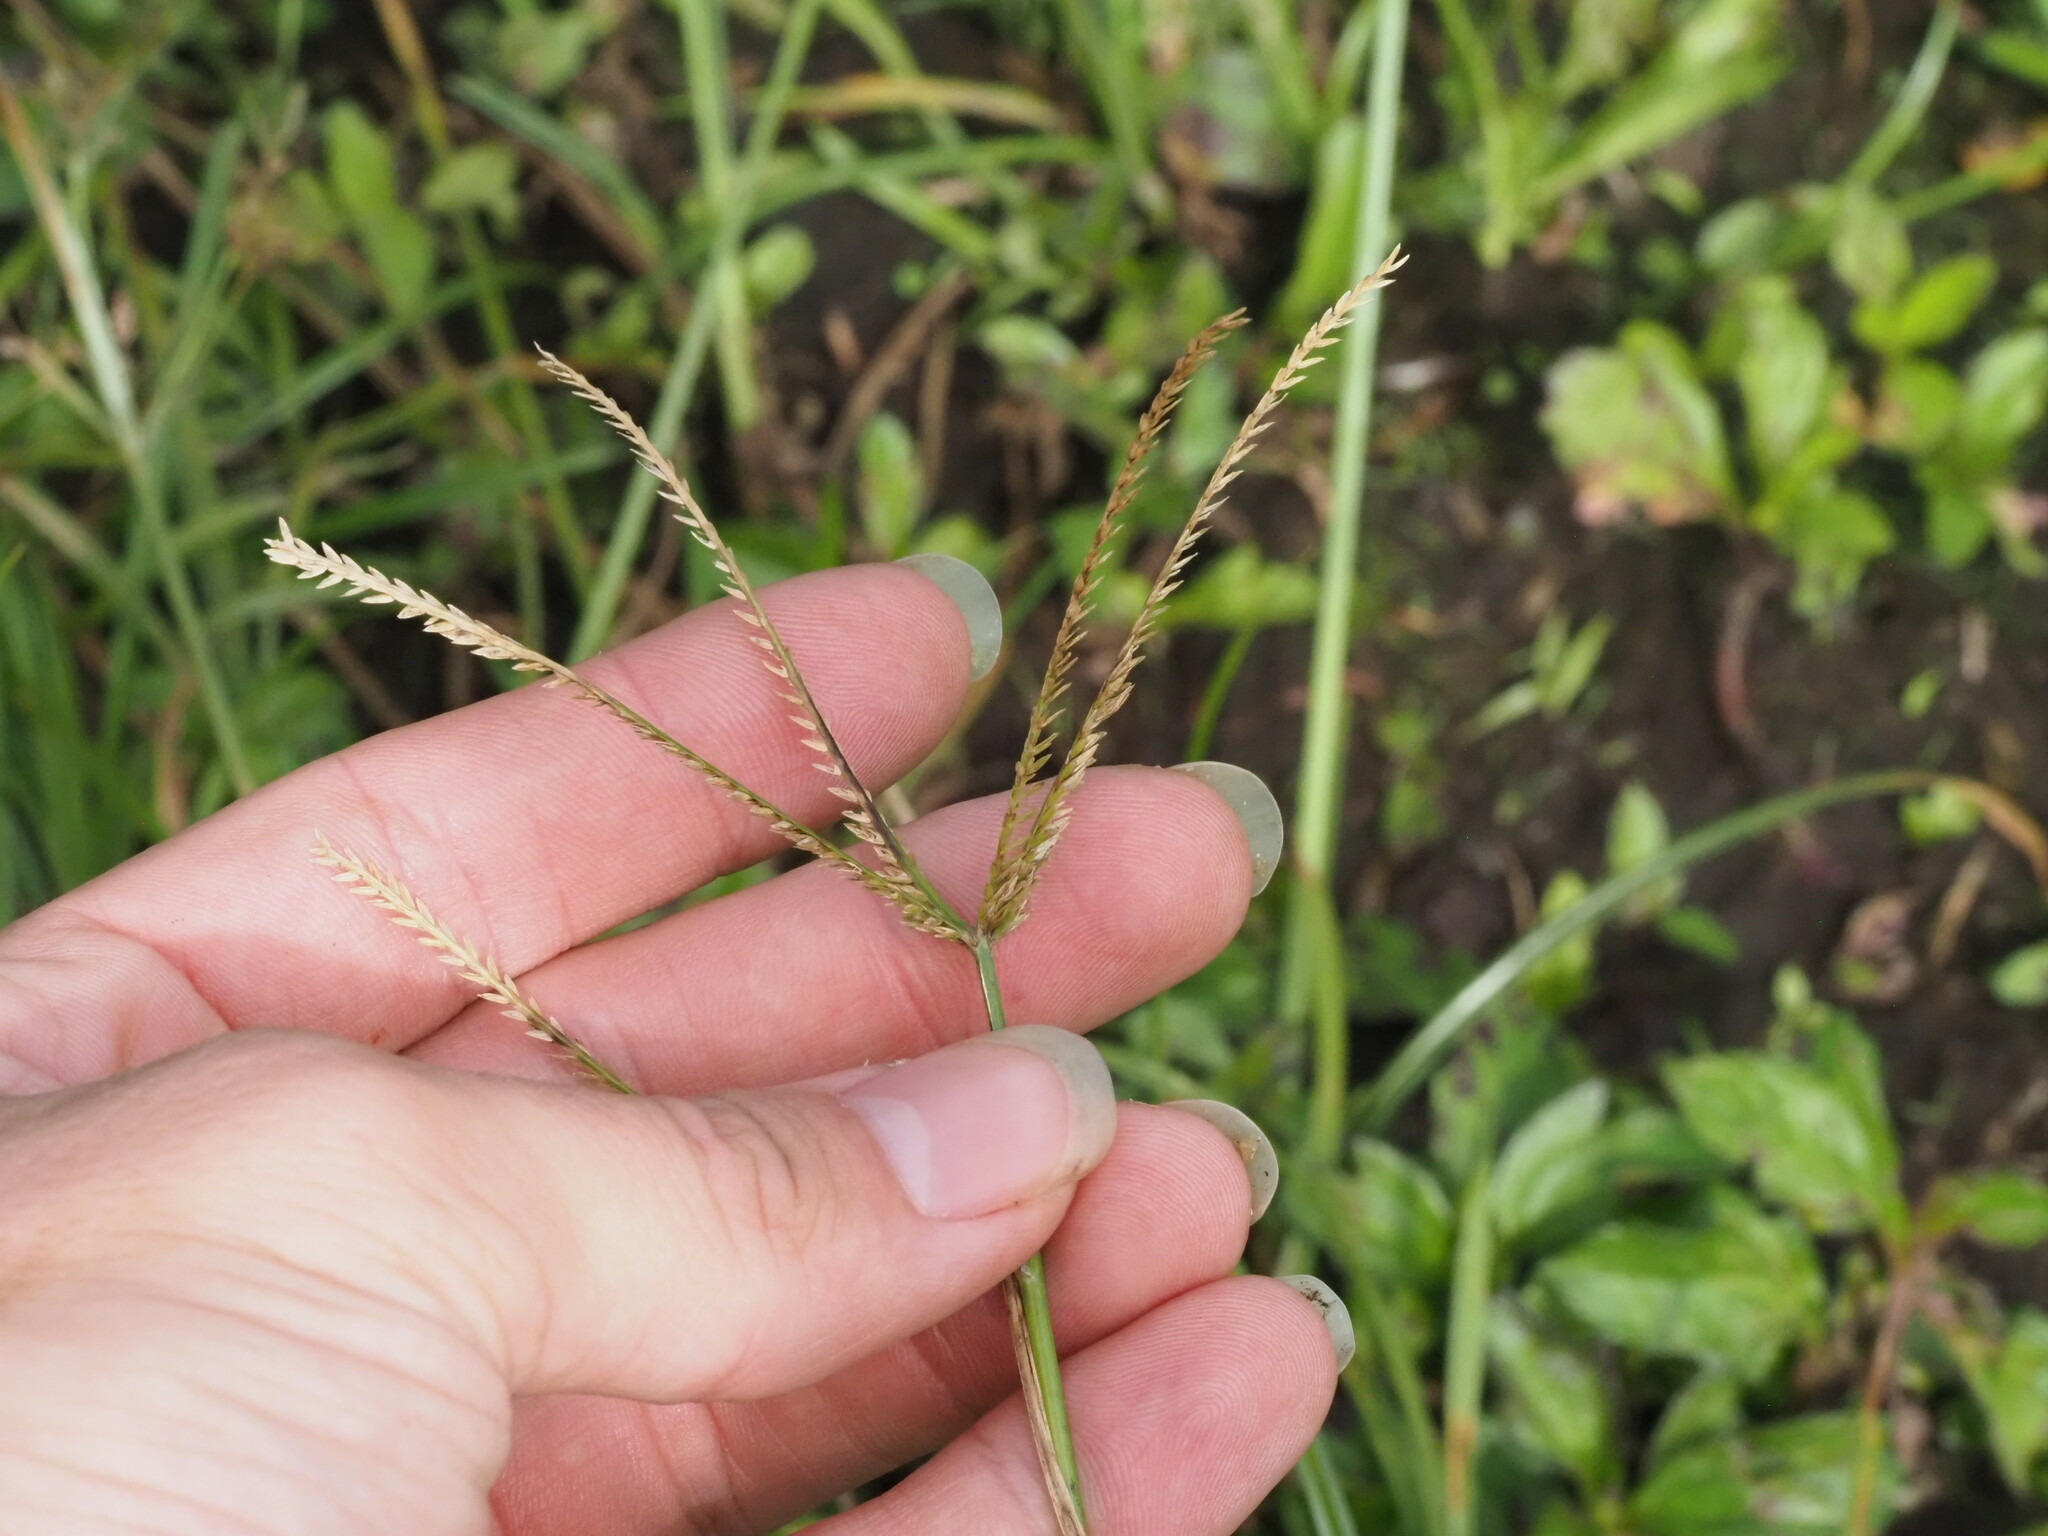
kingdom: Plantae
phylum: Tracheophyta
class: Liliopsida
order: Poales
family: Poaceae
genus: Eleusine
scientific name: Eleusine indica
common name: Yard-grass
